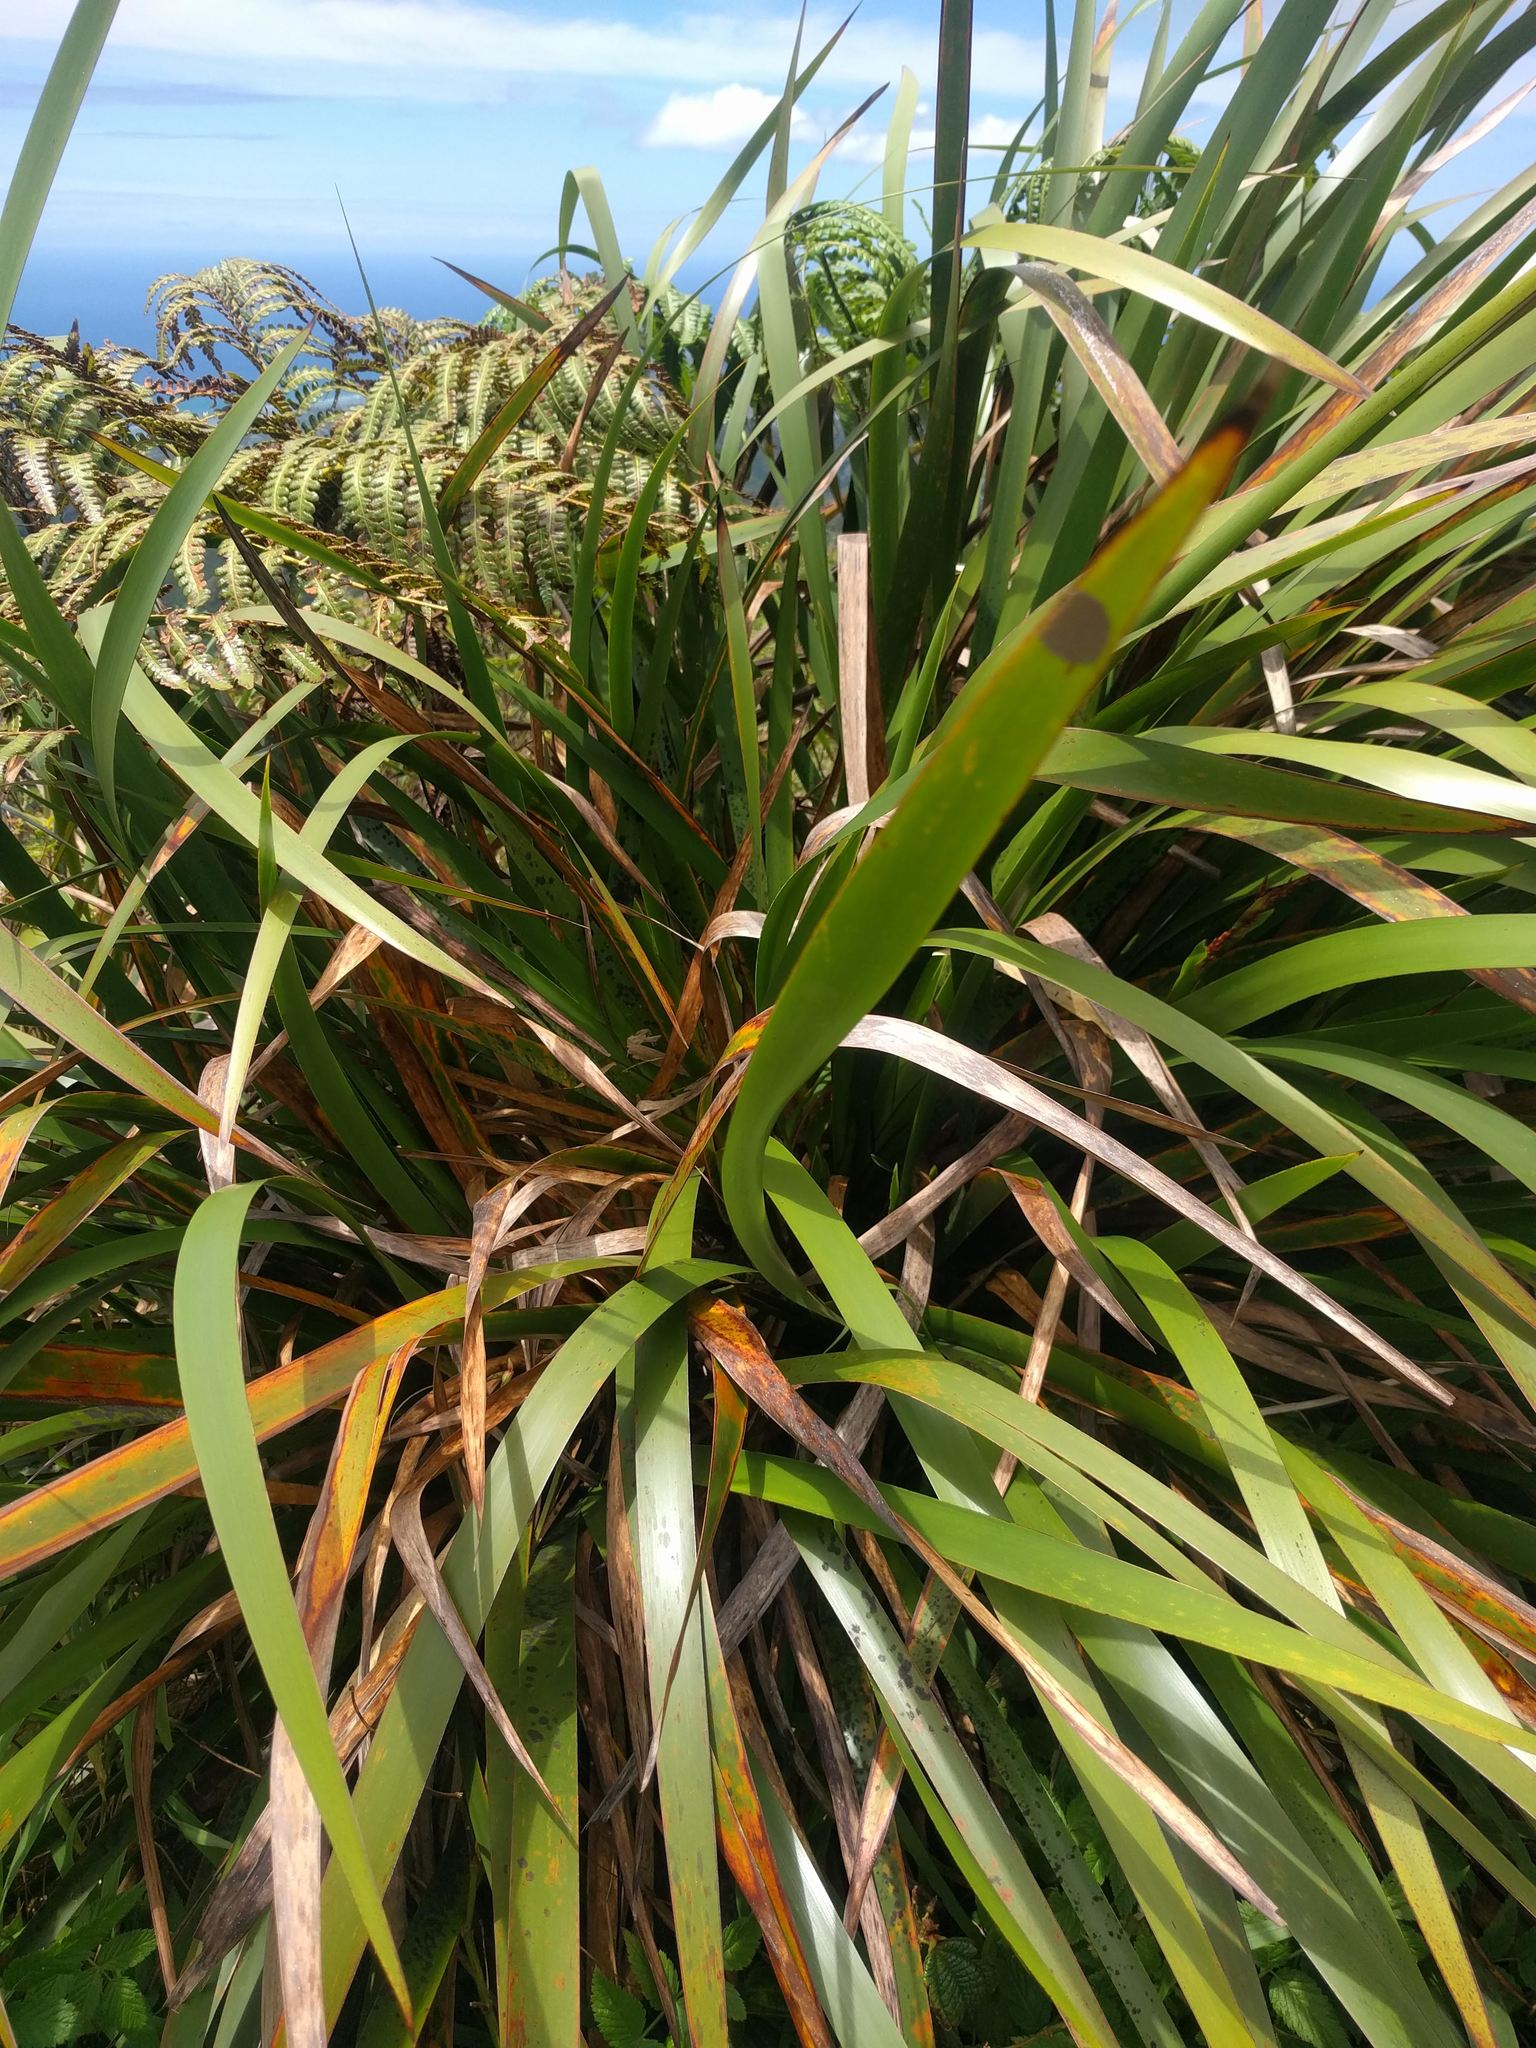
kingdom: Plantae
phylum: Tracheophyta
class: Liliopsida
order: Poales
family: Cyperaceae
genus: Machaerina
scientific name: Machaerina angustifolia
